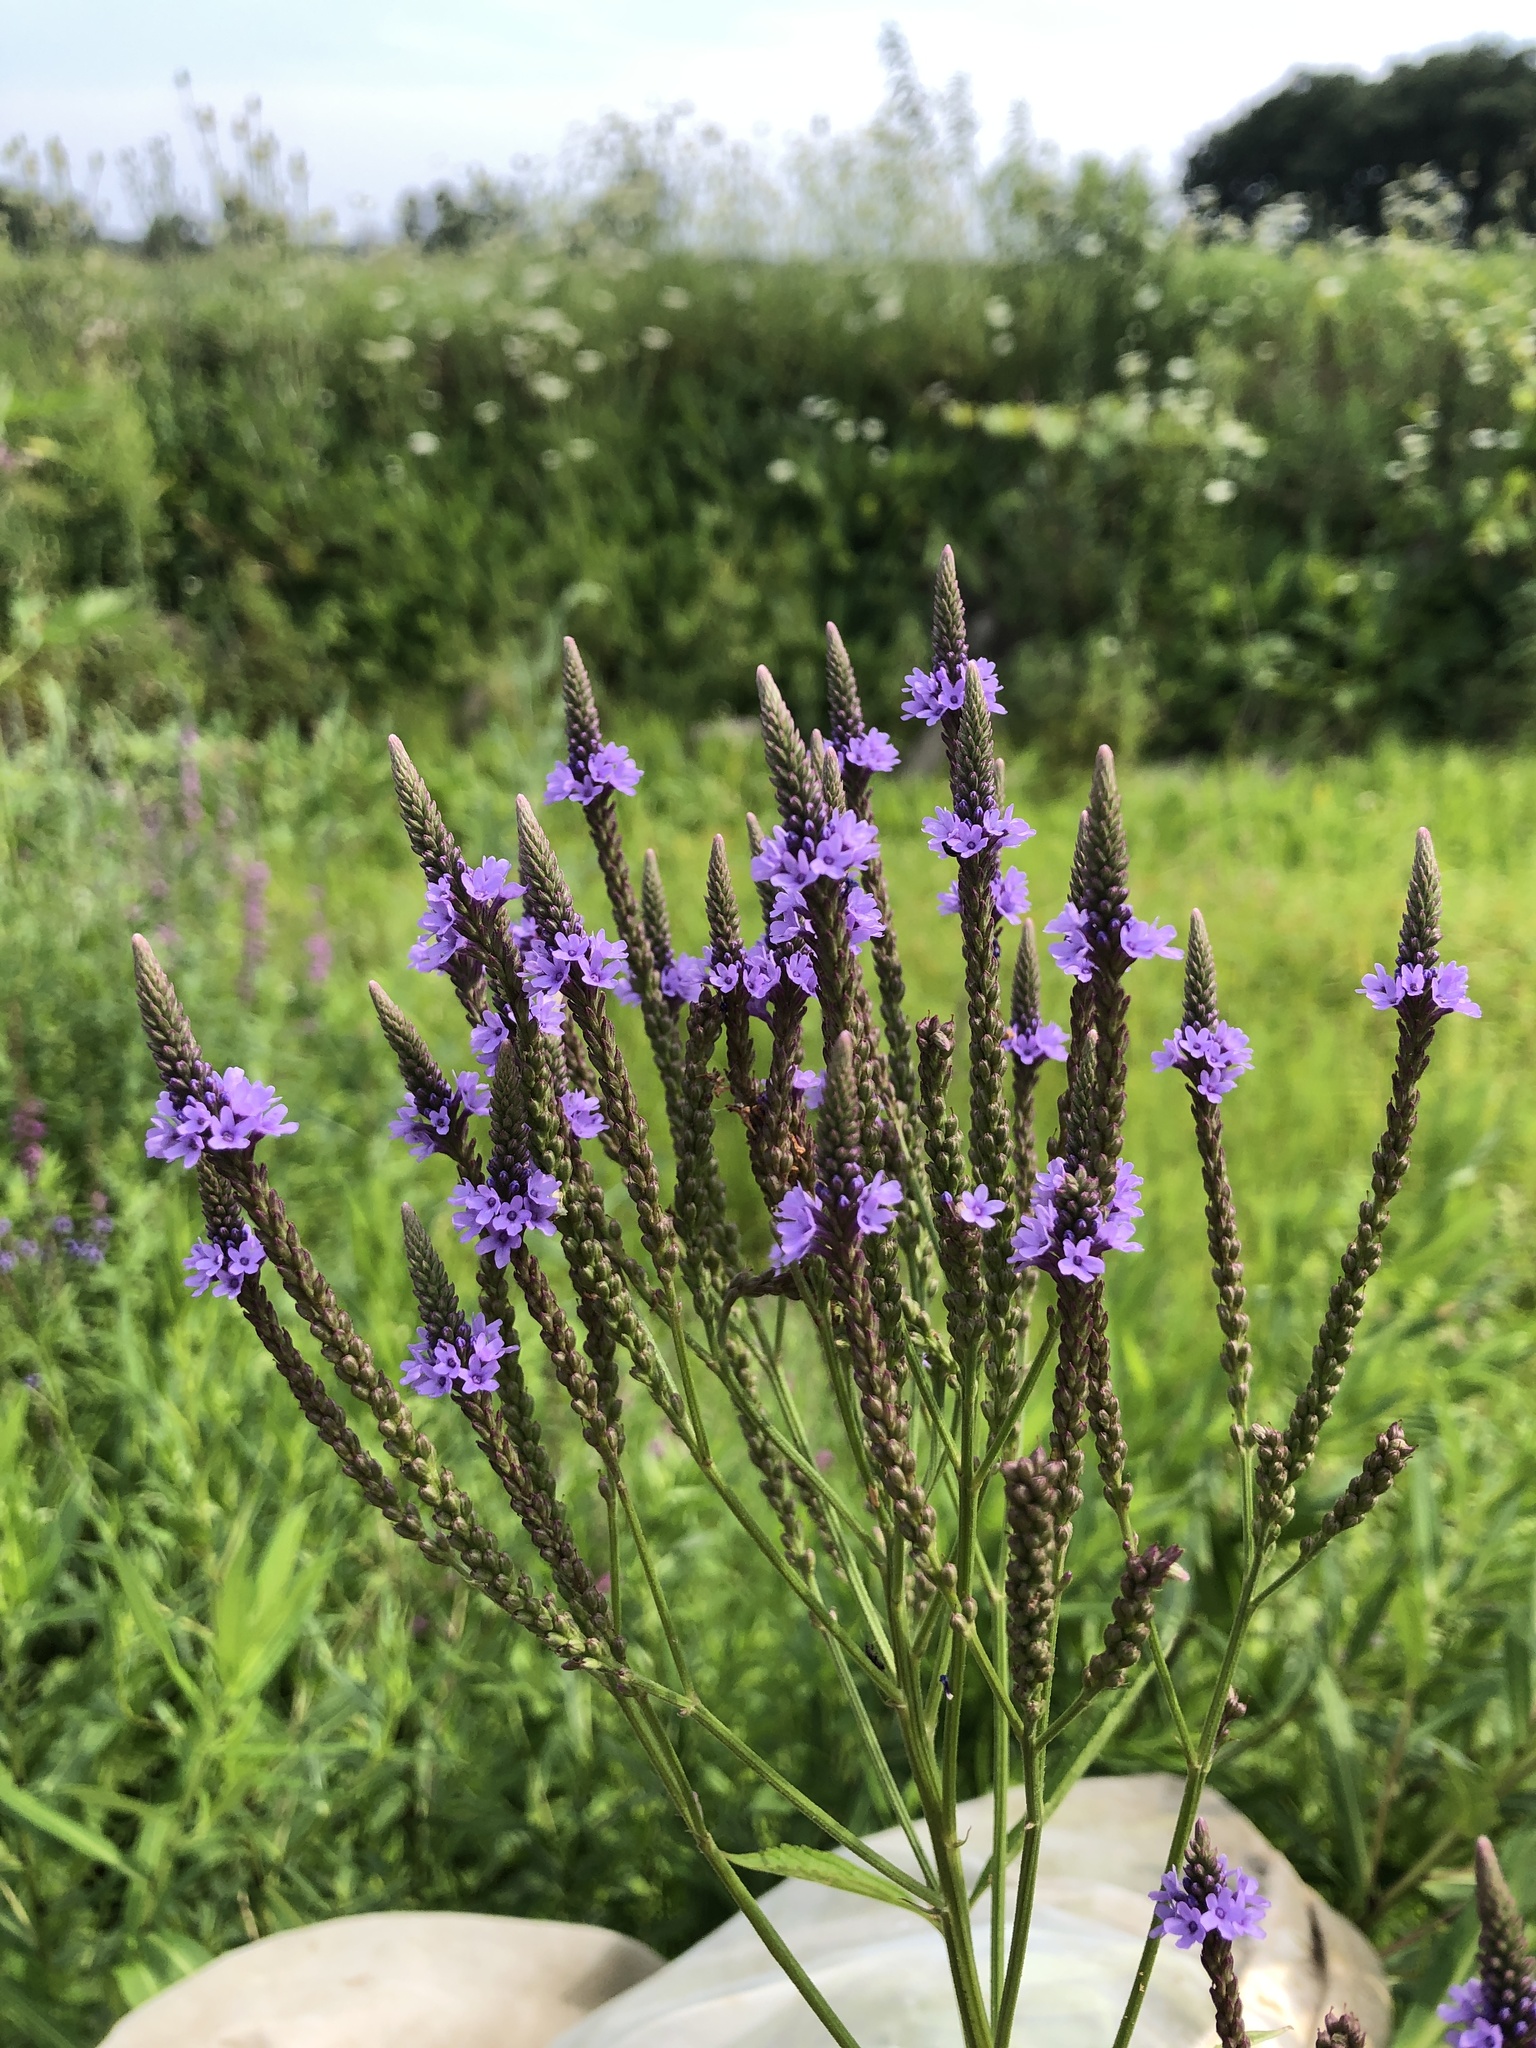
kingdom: Plantae
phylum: Tracheophyta
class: Magnoliopsida
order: Lamiales
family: Verbenaceae
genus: Verbena
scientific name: Verbena hastata
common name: American blue vervain
